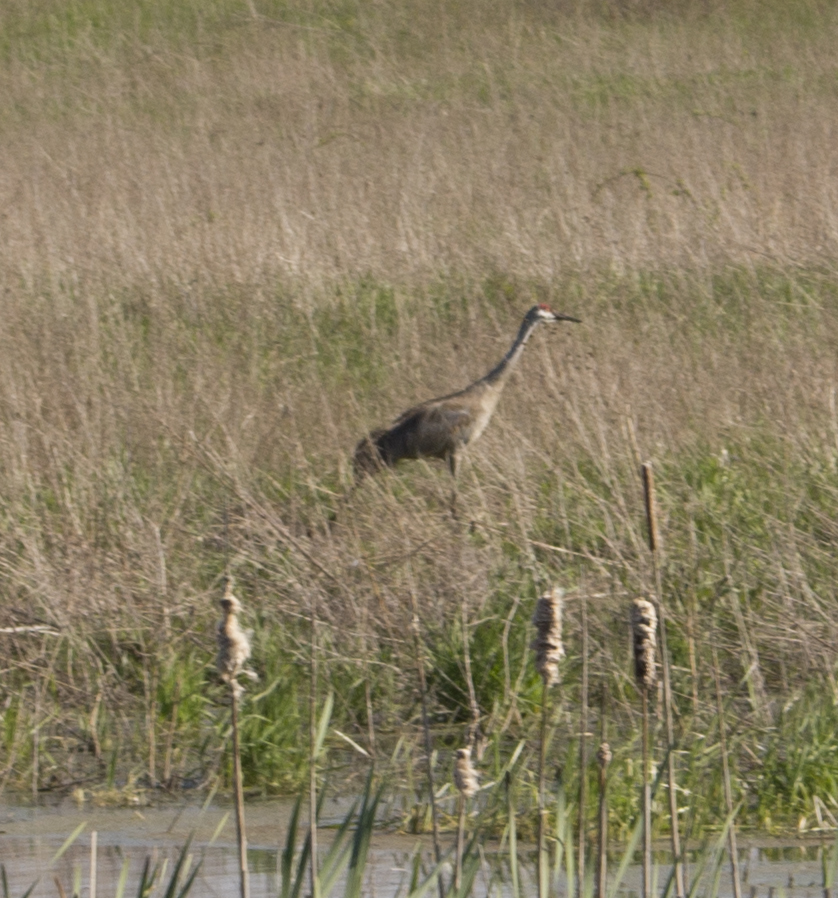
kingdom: Animalia
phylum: Chordata
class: Aves
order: Gruiformes
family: Gruidae
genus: Grus
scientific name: Grus canadensis
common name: Sandhill crane
